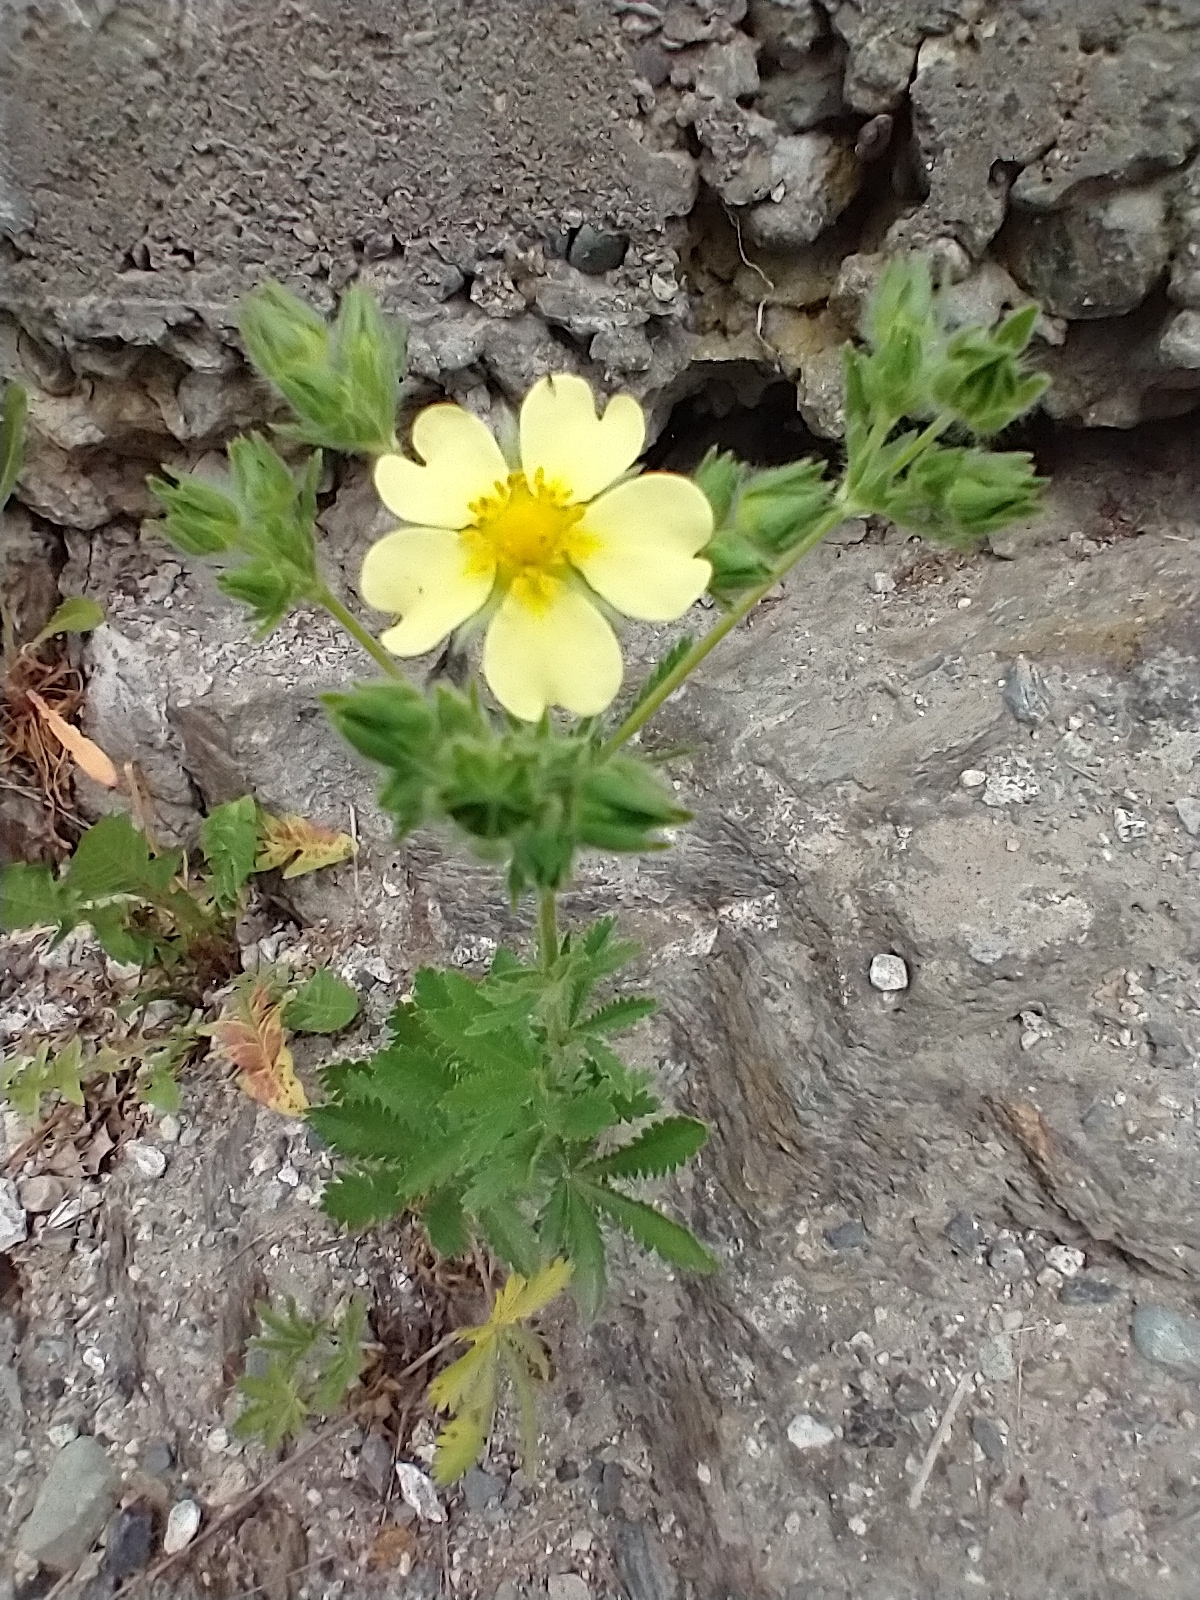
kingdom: Plantae
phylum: Tracheophyta
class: Magnoliopsida
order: Rosales
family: Rosaceae
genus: Potentilla
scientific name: Potentilla recta
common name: Sulphur cinquefoil
